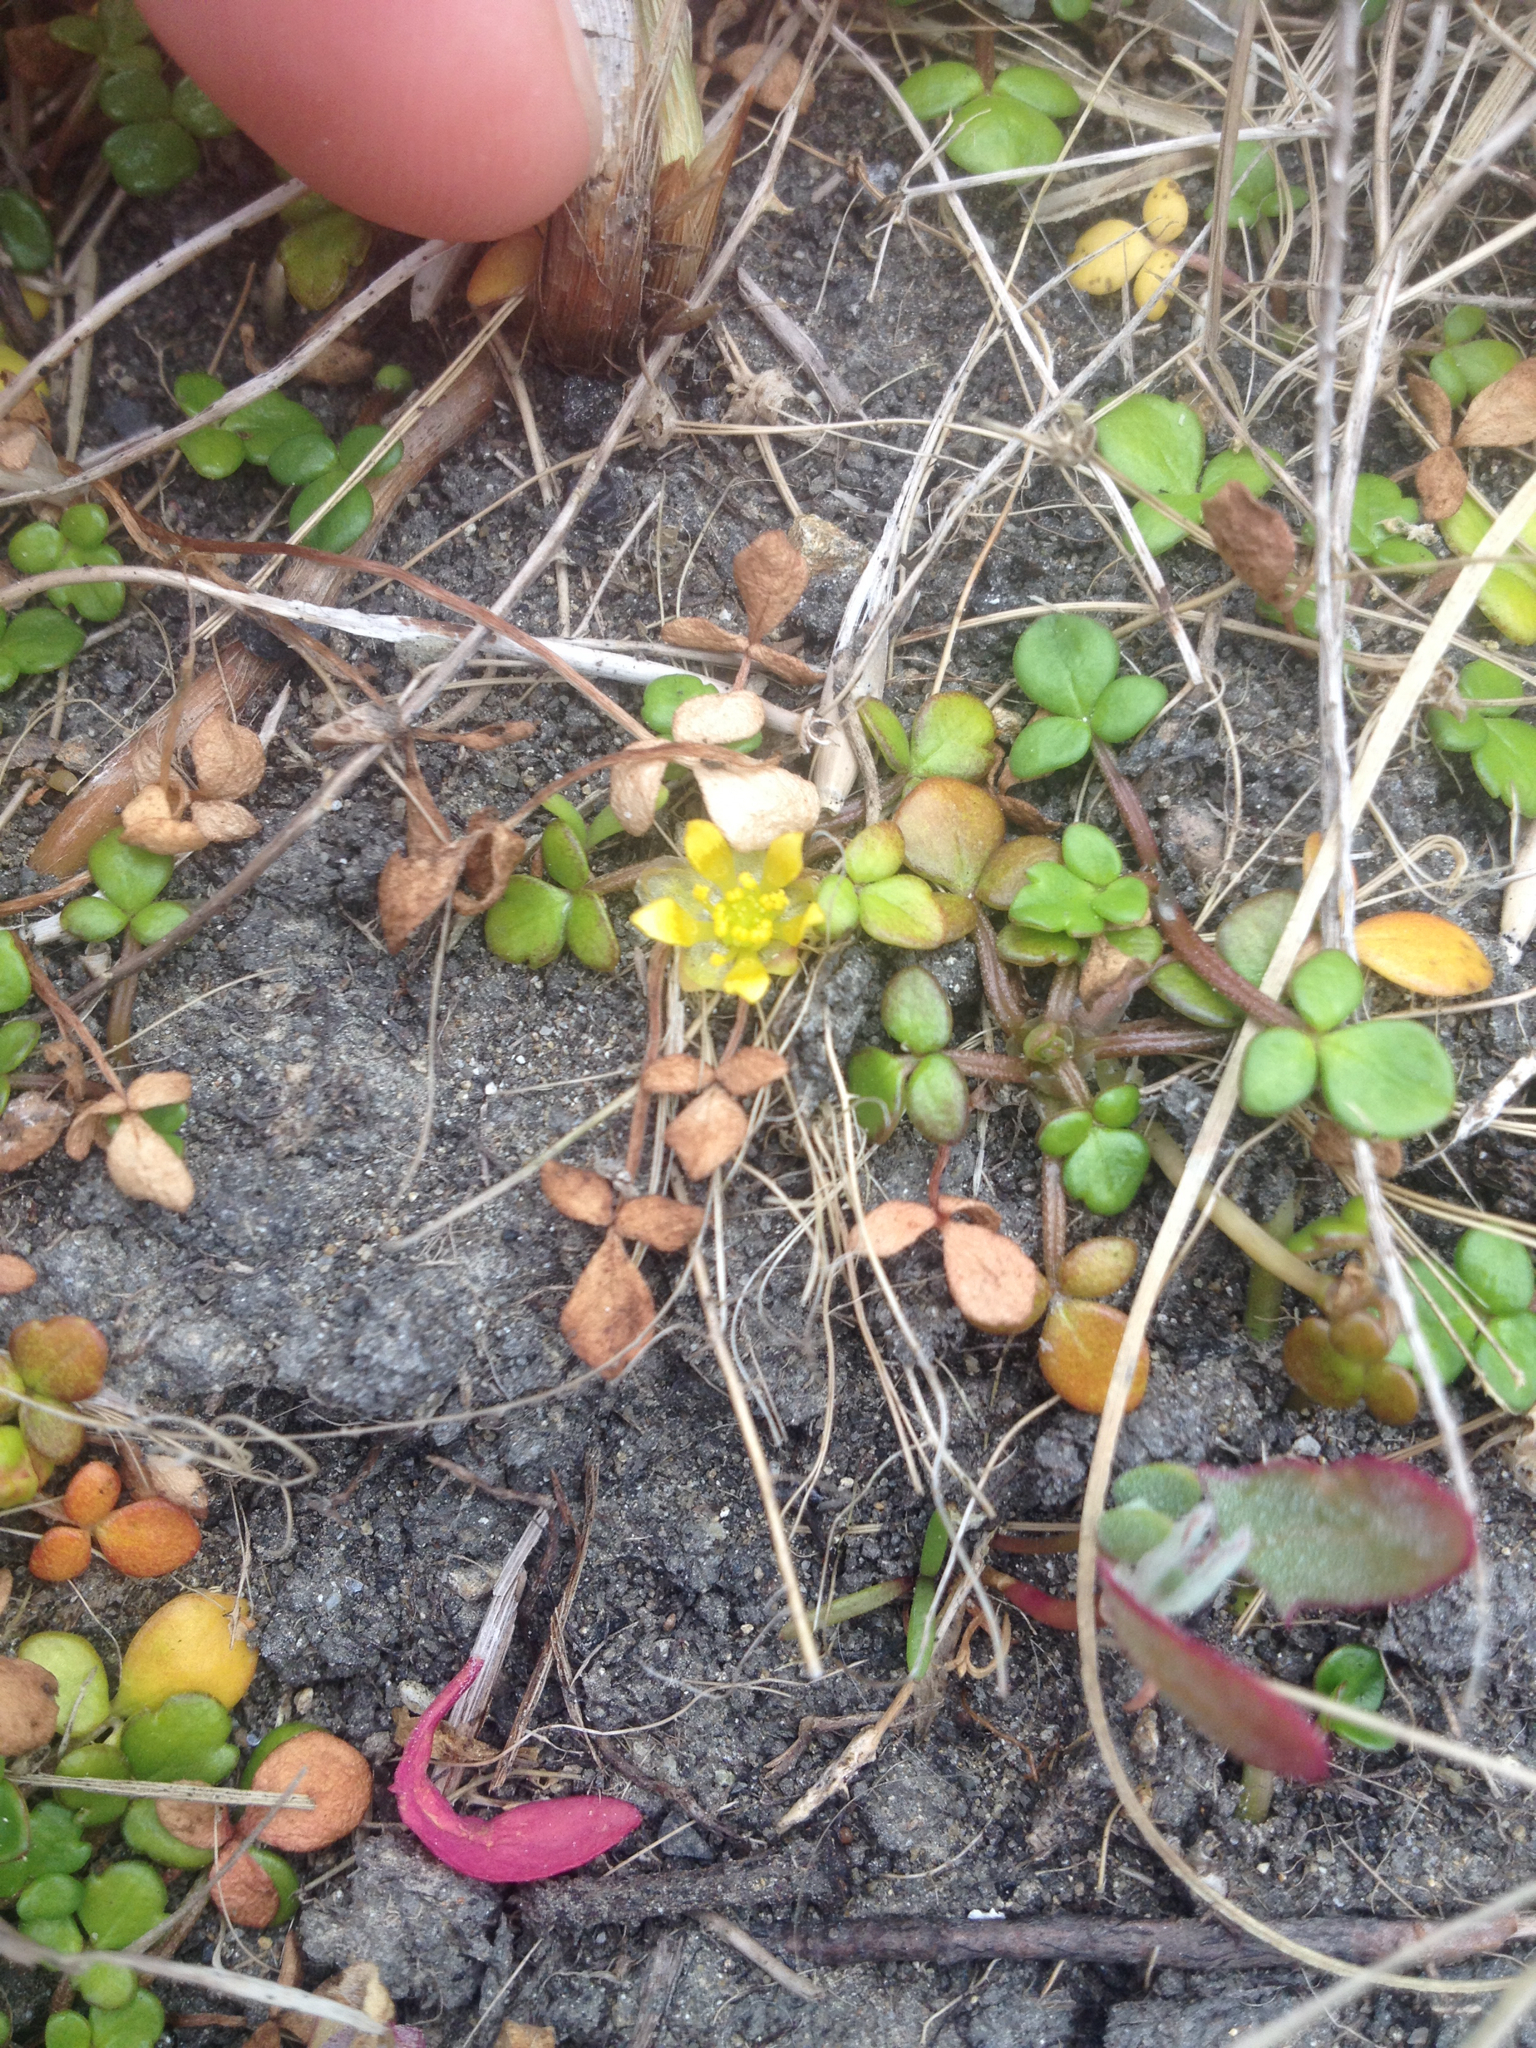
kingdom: Plantae
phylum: Tracheophyta
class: Magnoliopsida
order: Ranunculales
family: Ranunculaceae
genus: Ranunculus
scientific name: Ranunculus acaulis
